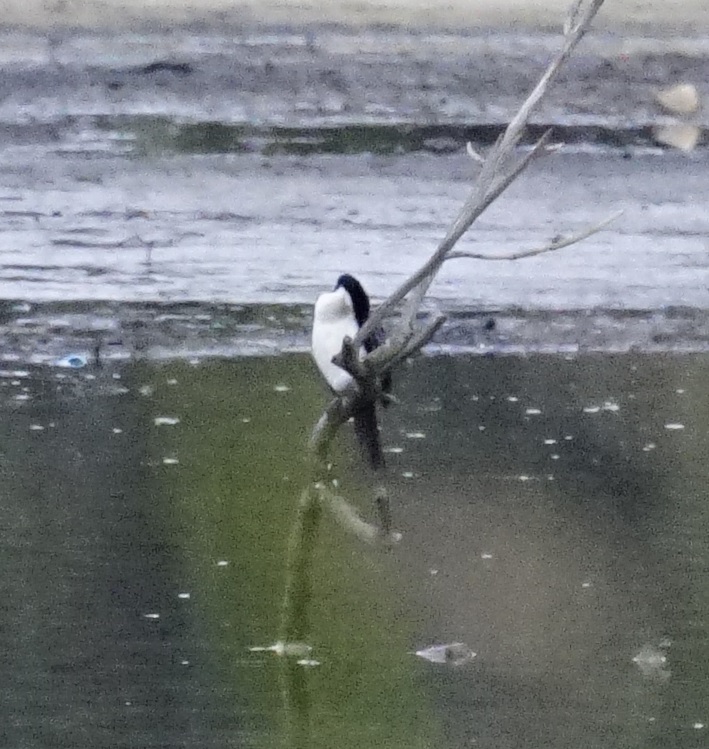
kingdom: Animalia
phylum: Chordata
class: Aves
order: Suliformes
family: Phalacrocoracidae
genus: Microcarbo
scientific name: Microcarbo melanoleucos
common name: Little pied cormorant
